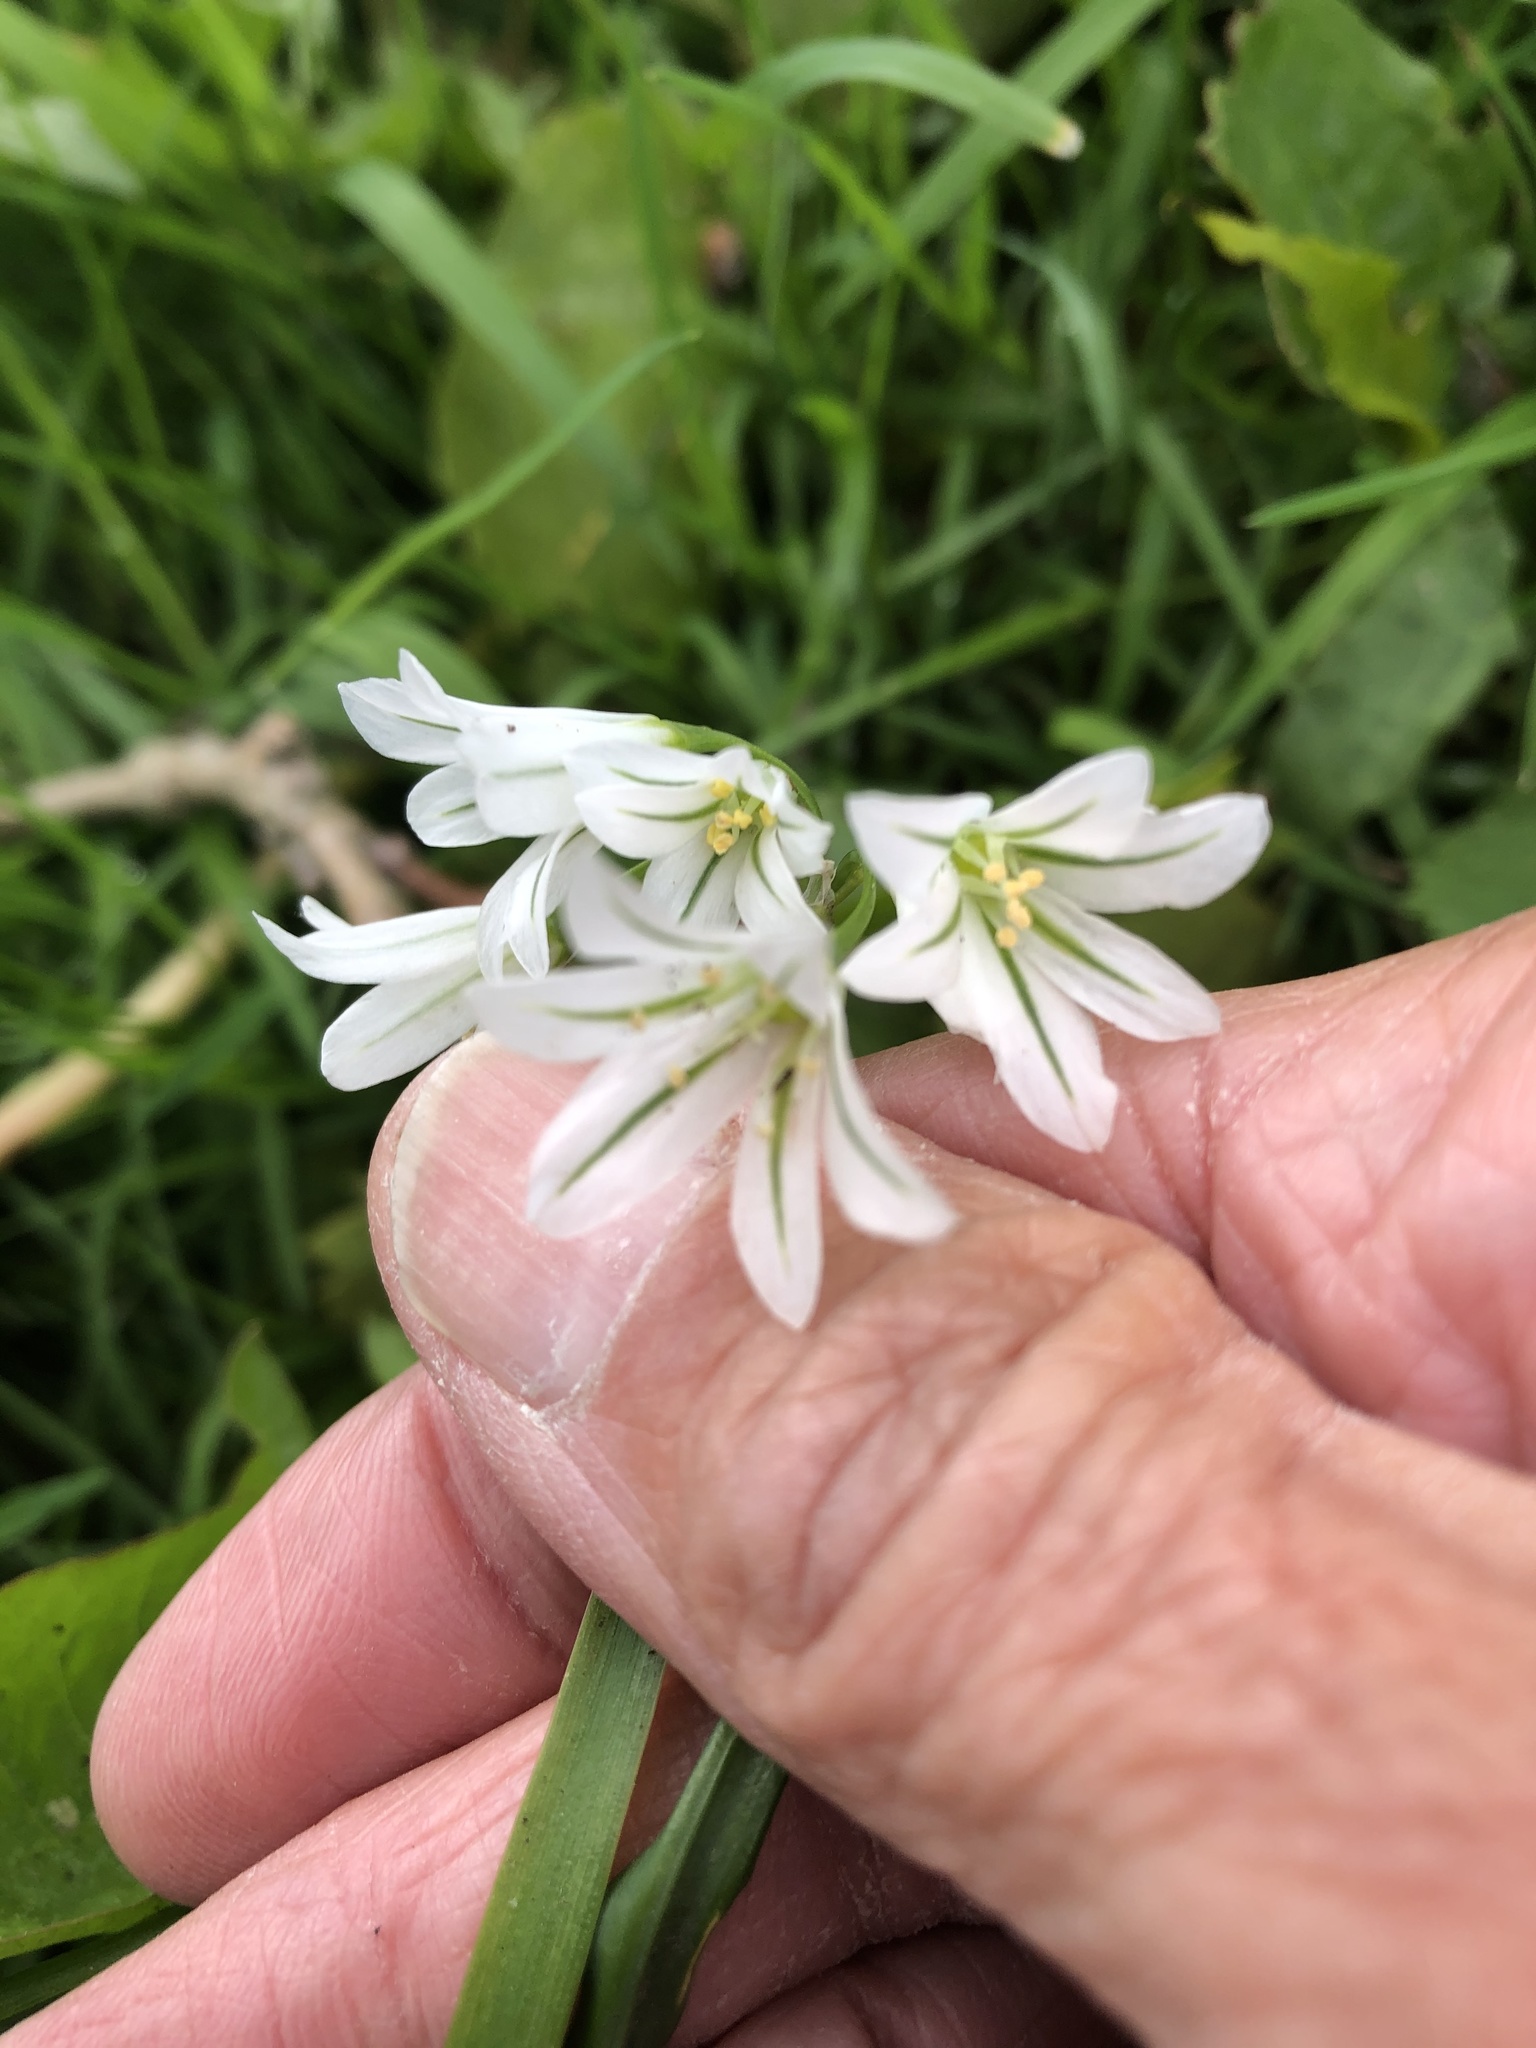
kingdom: Plantae
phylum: Tracheophyta
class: Liliopsida
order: Asparagales
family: Amaryllidaceae
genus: Allium
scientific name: Allium triquetrum
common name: Three-cornered garlic
